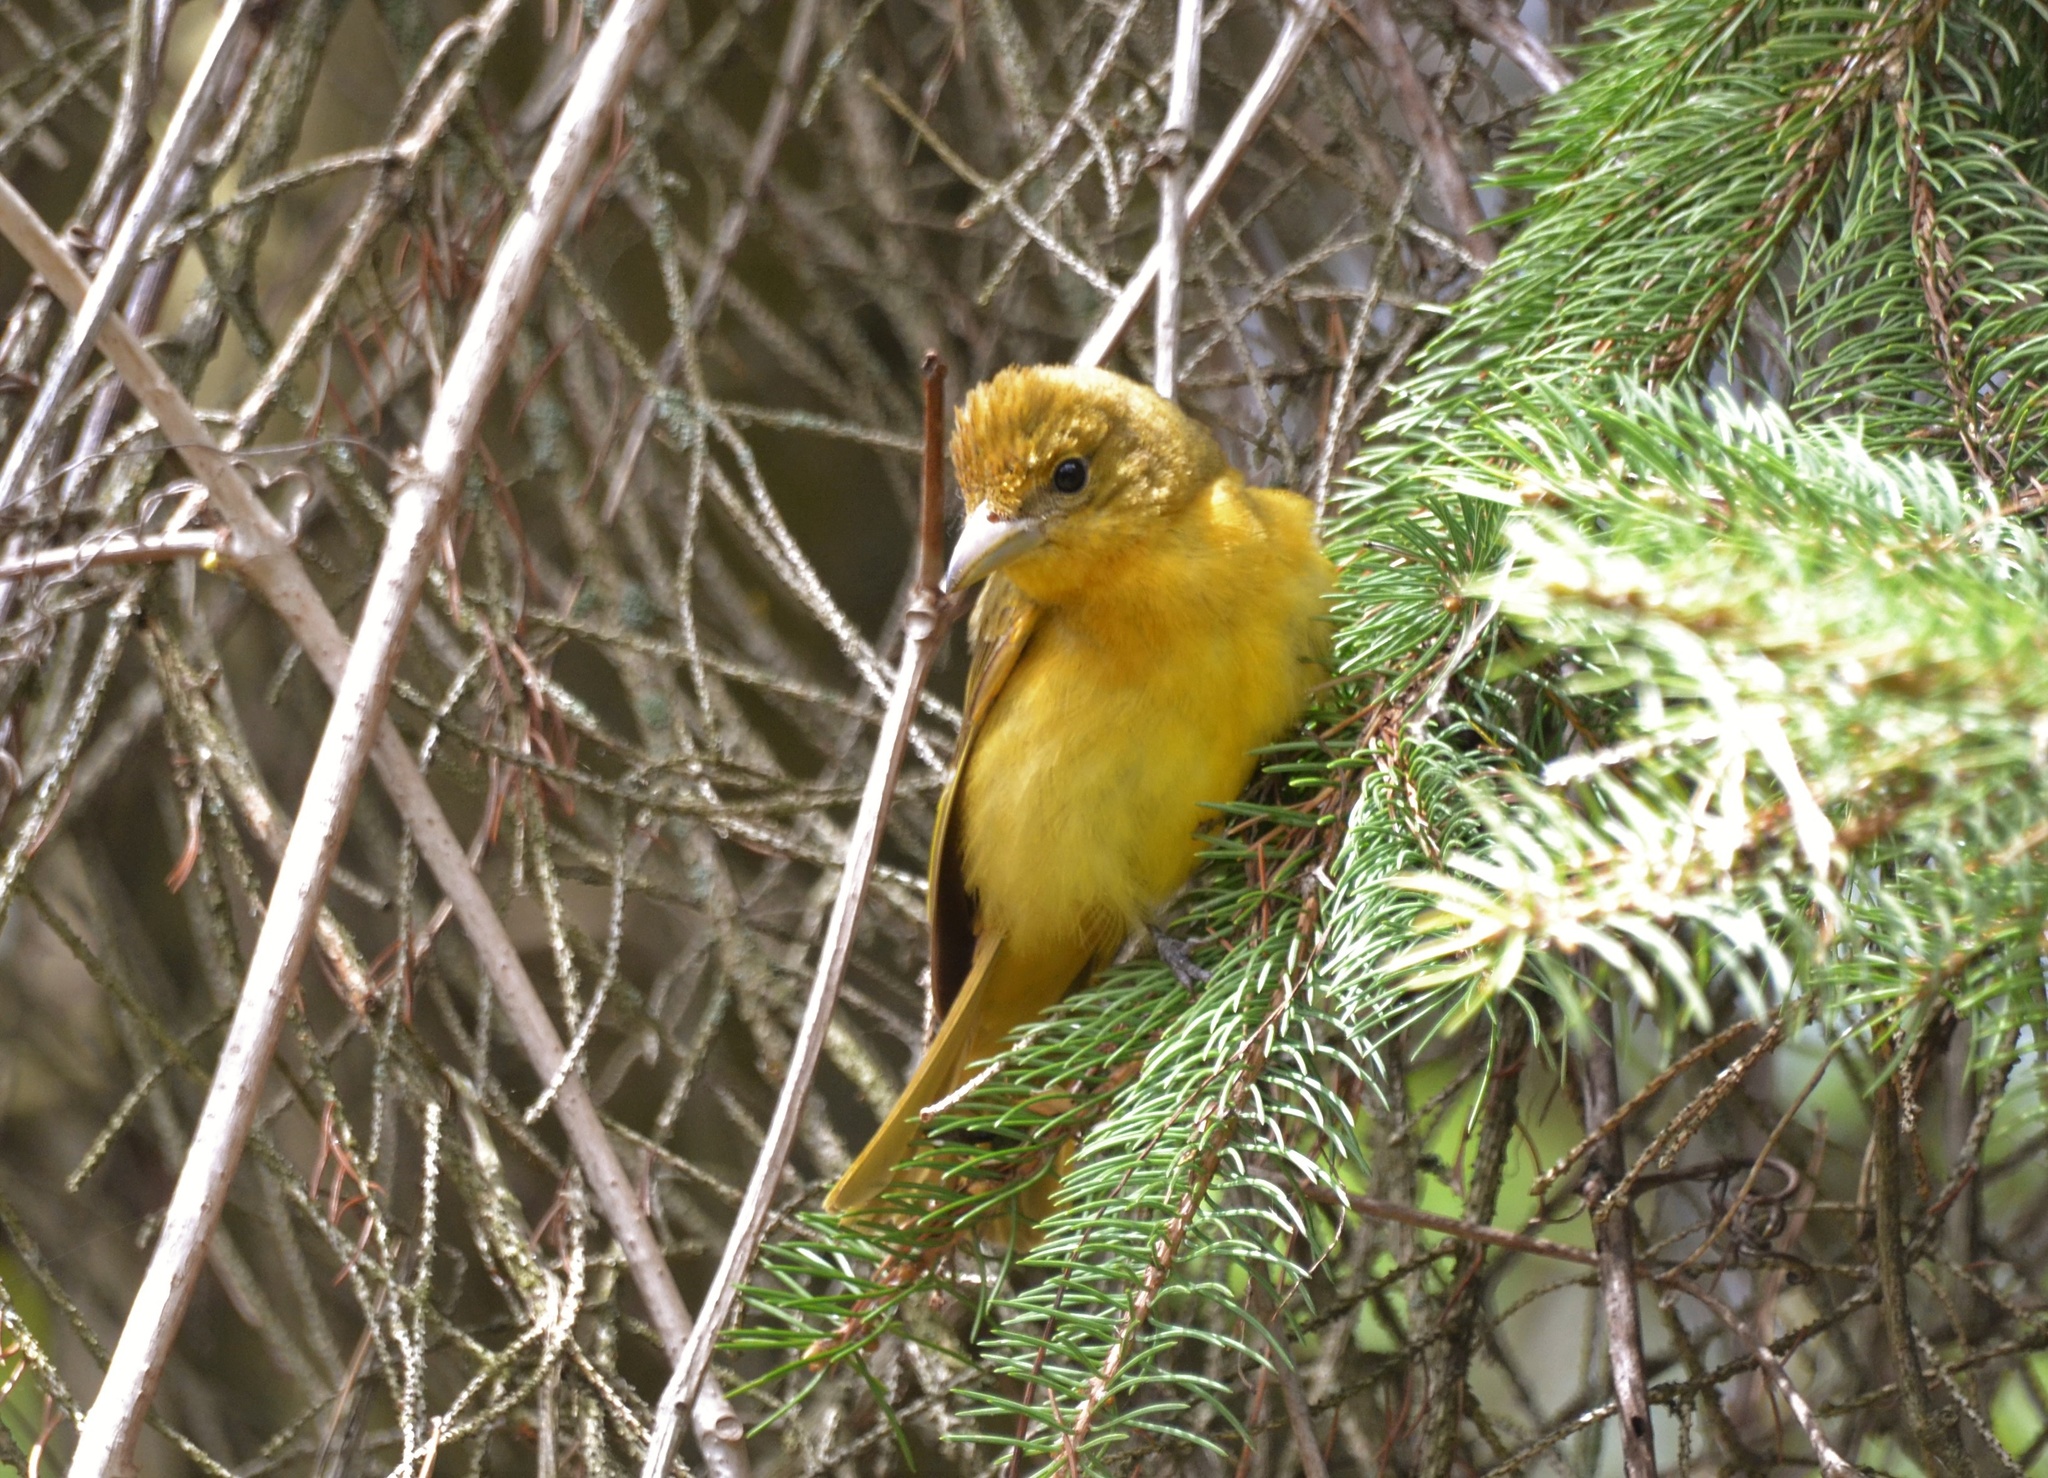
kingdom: Animalia
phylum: Chordata
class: Aves
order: Passeriformes
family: Cardinalidae
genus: Piranga
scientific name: Piranga rubra
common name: Summer tanager
